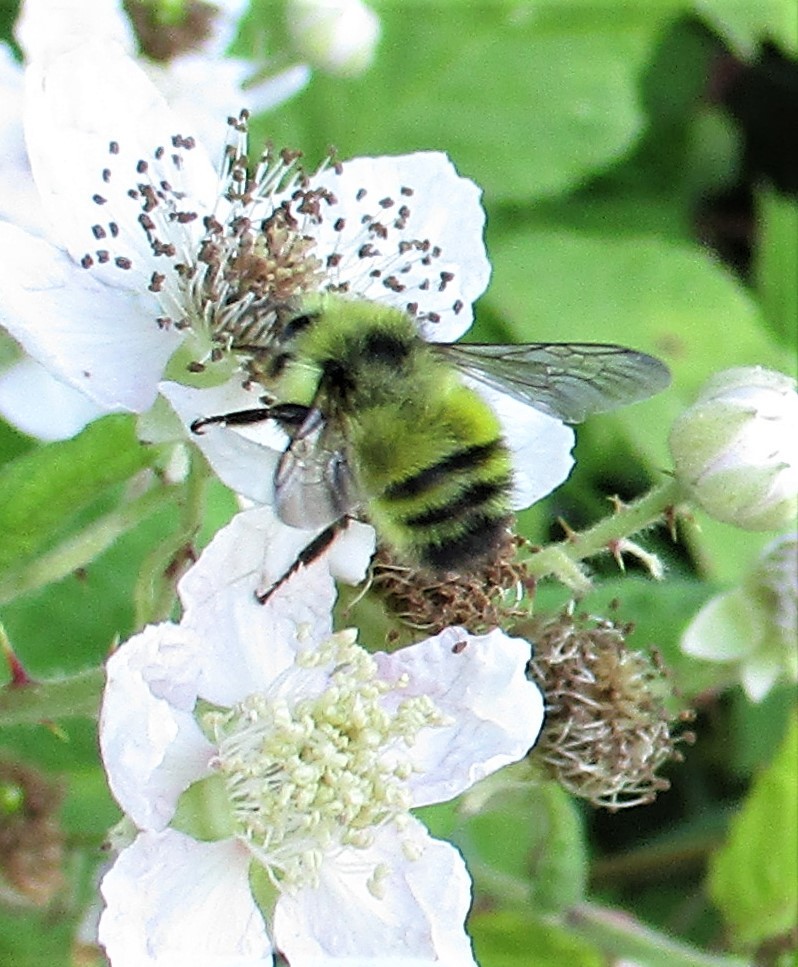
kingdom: Animalia
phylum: Arthropoda
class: Insecta
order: Hymenoptera
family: Apidae
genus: Bombus
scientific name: Bombus flavifrons
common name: Yellow head bumble bee
